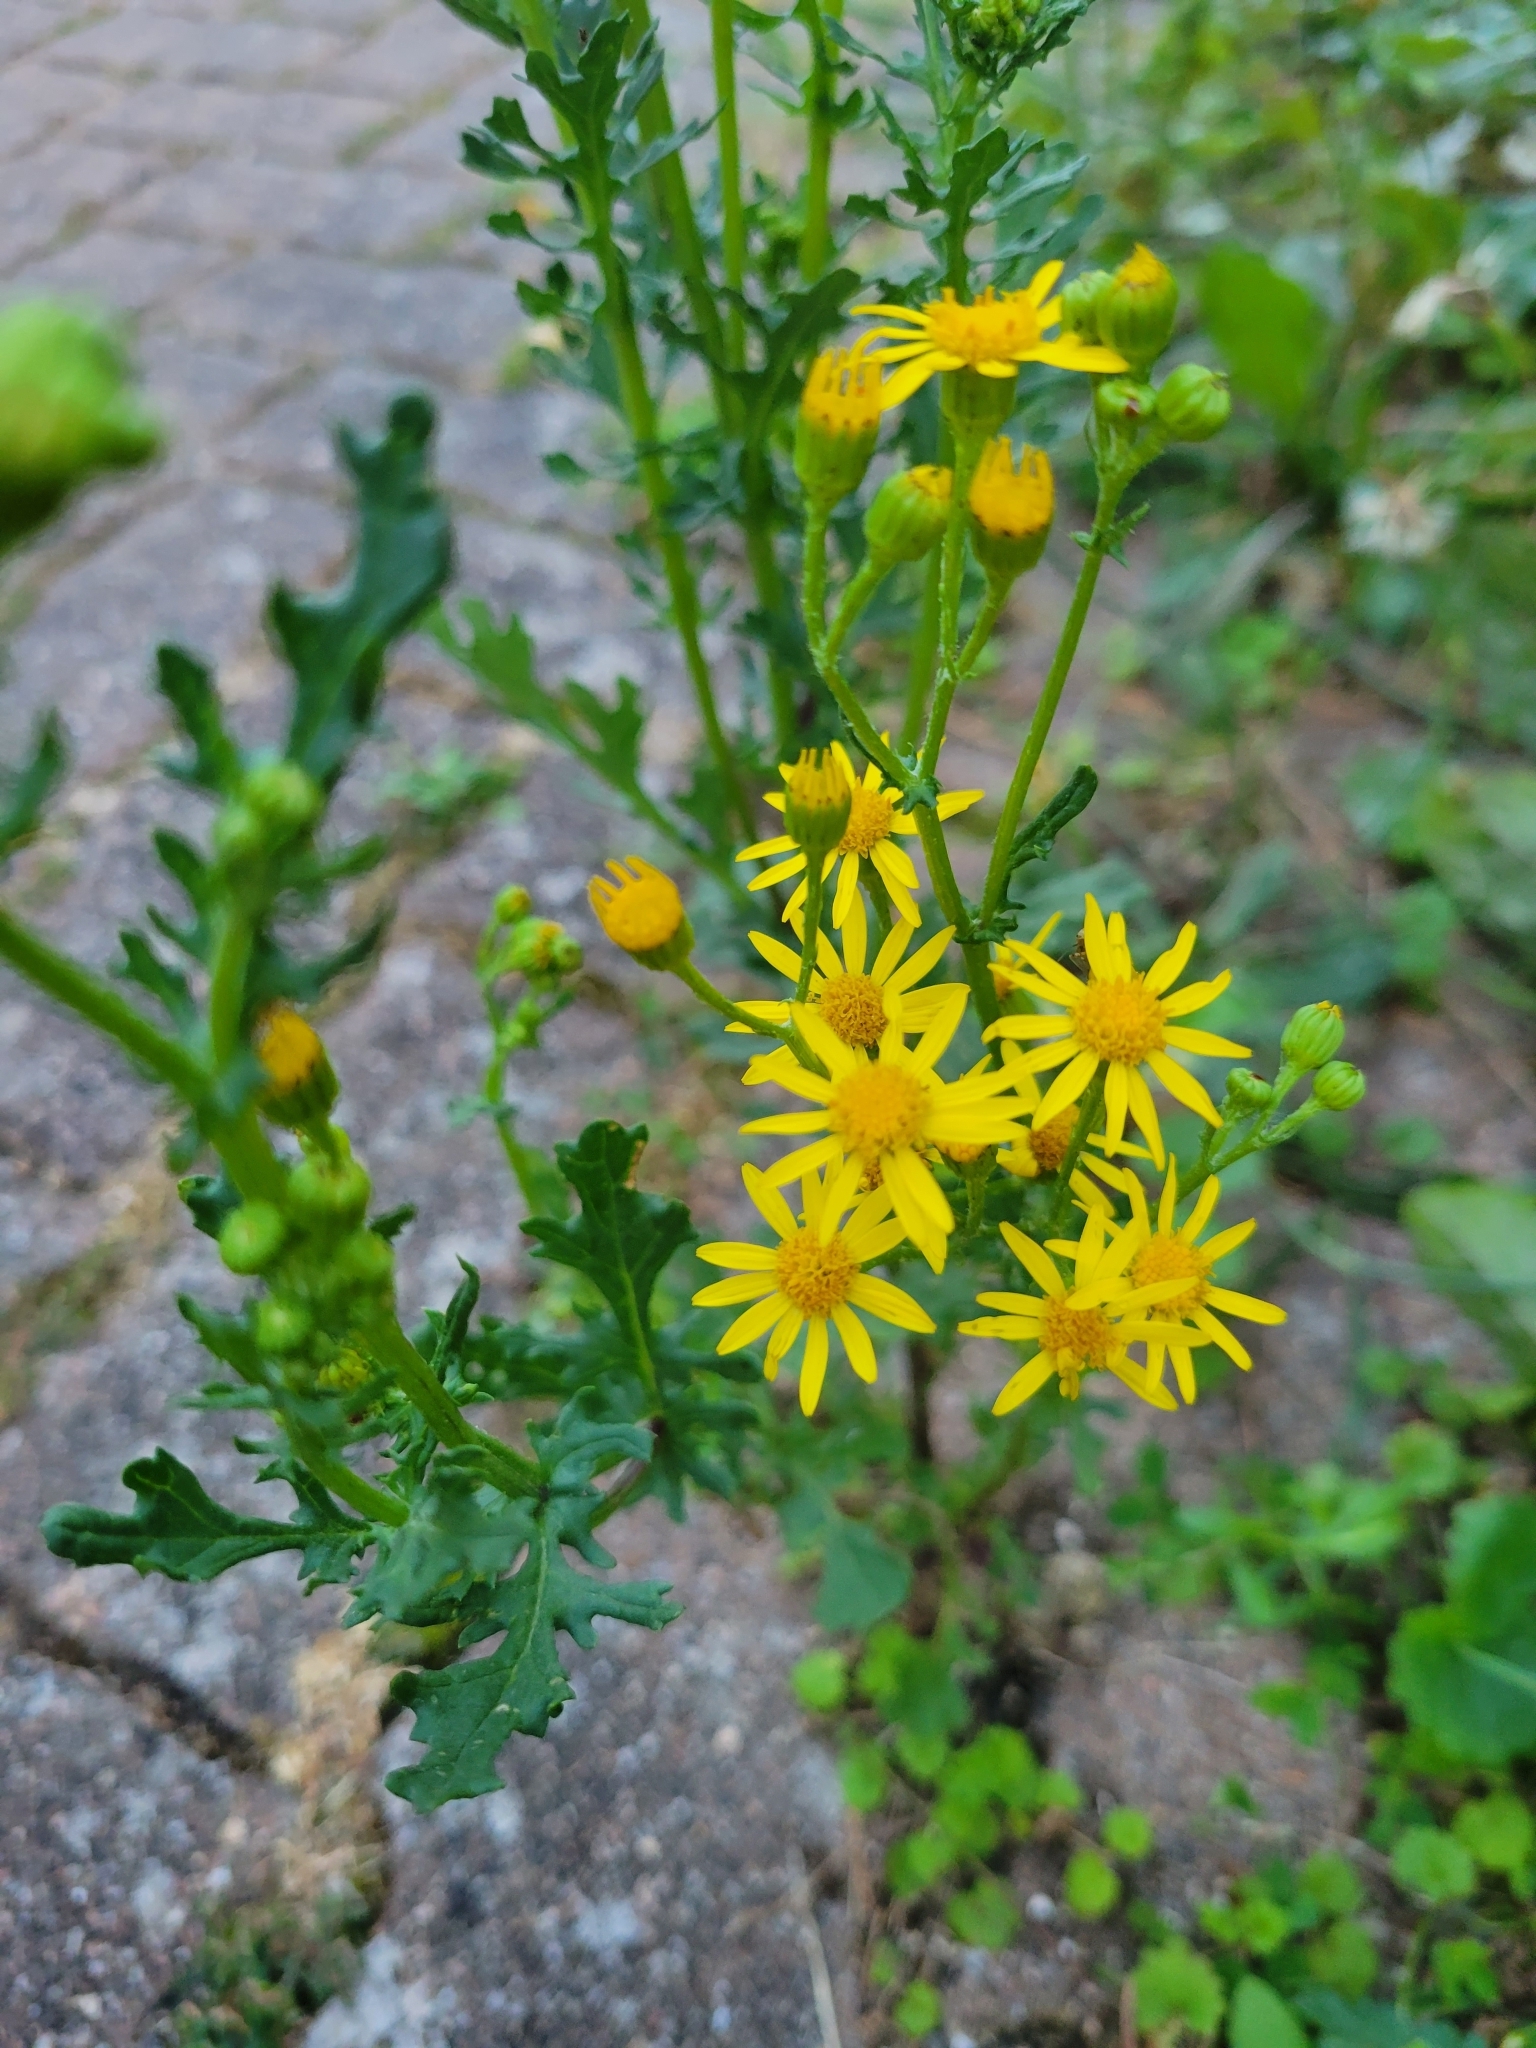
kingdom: Plantae
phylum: Tracheophyta
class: Magnoliopsida
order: Asterales
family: Asteraceae
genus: Jacobaea
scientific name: Jacobaea vulgaris
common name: Stinking willie
